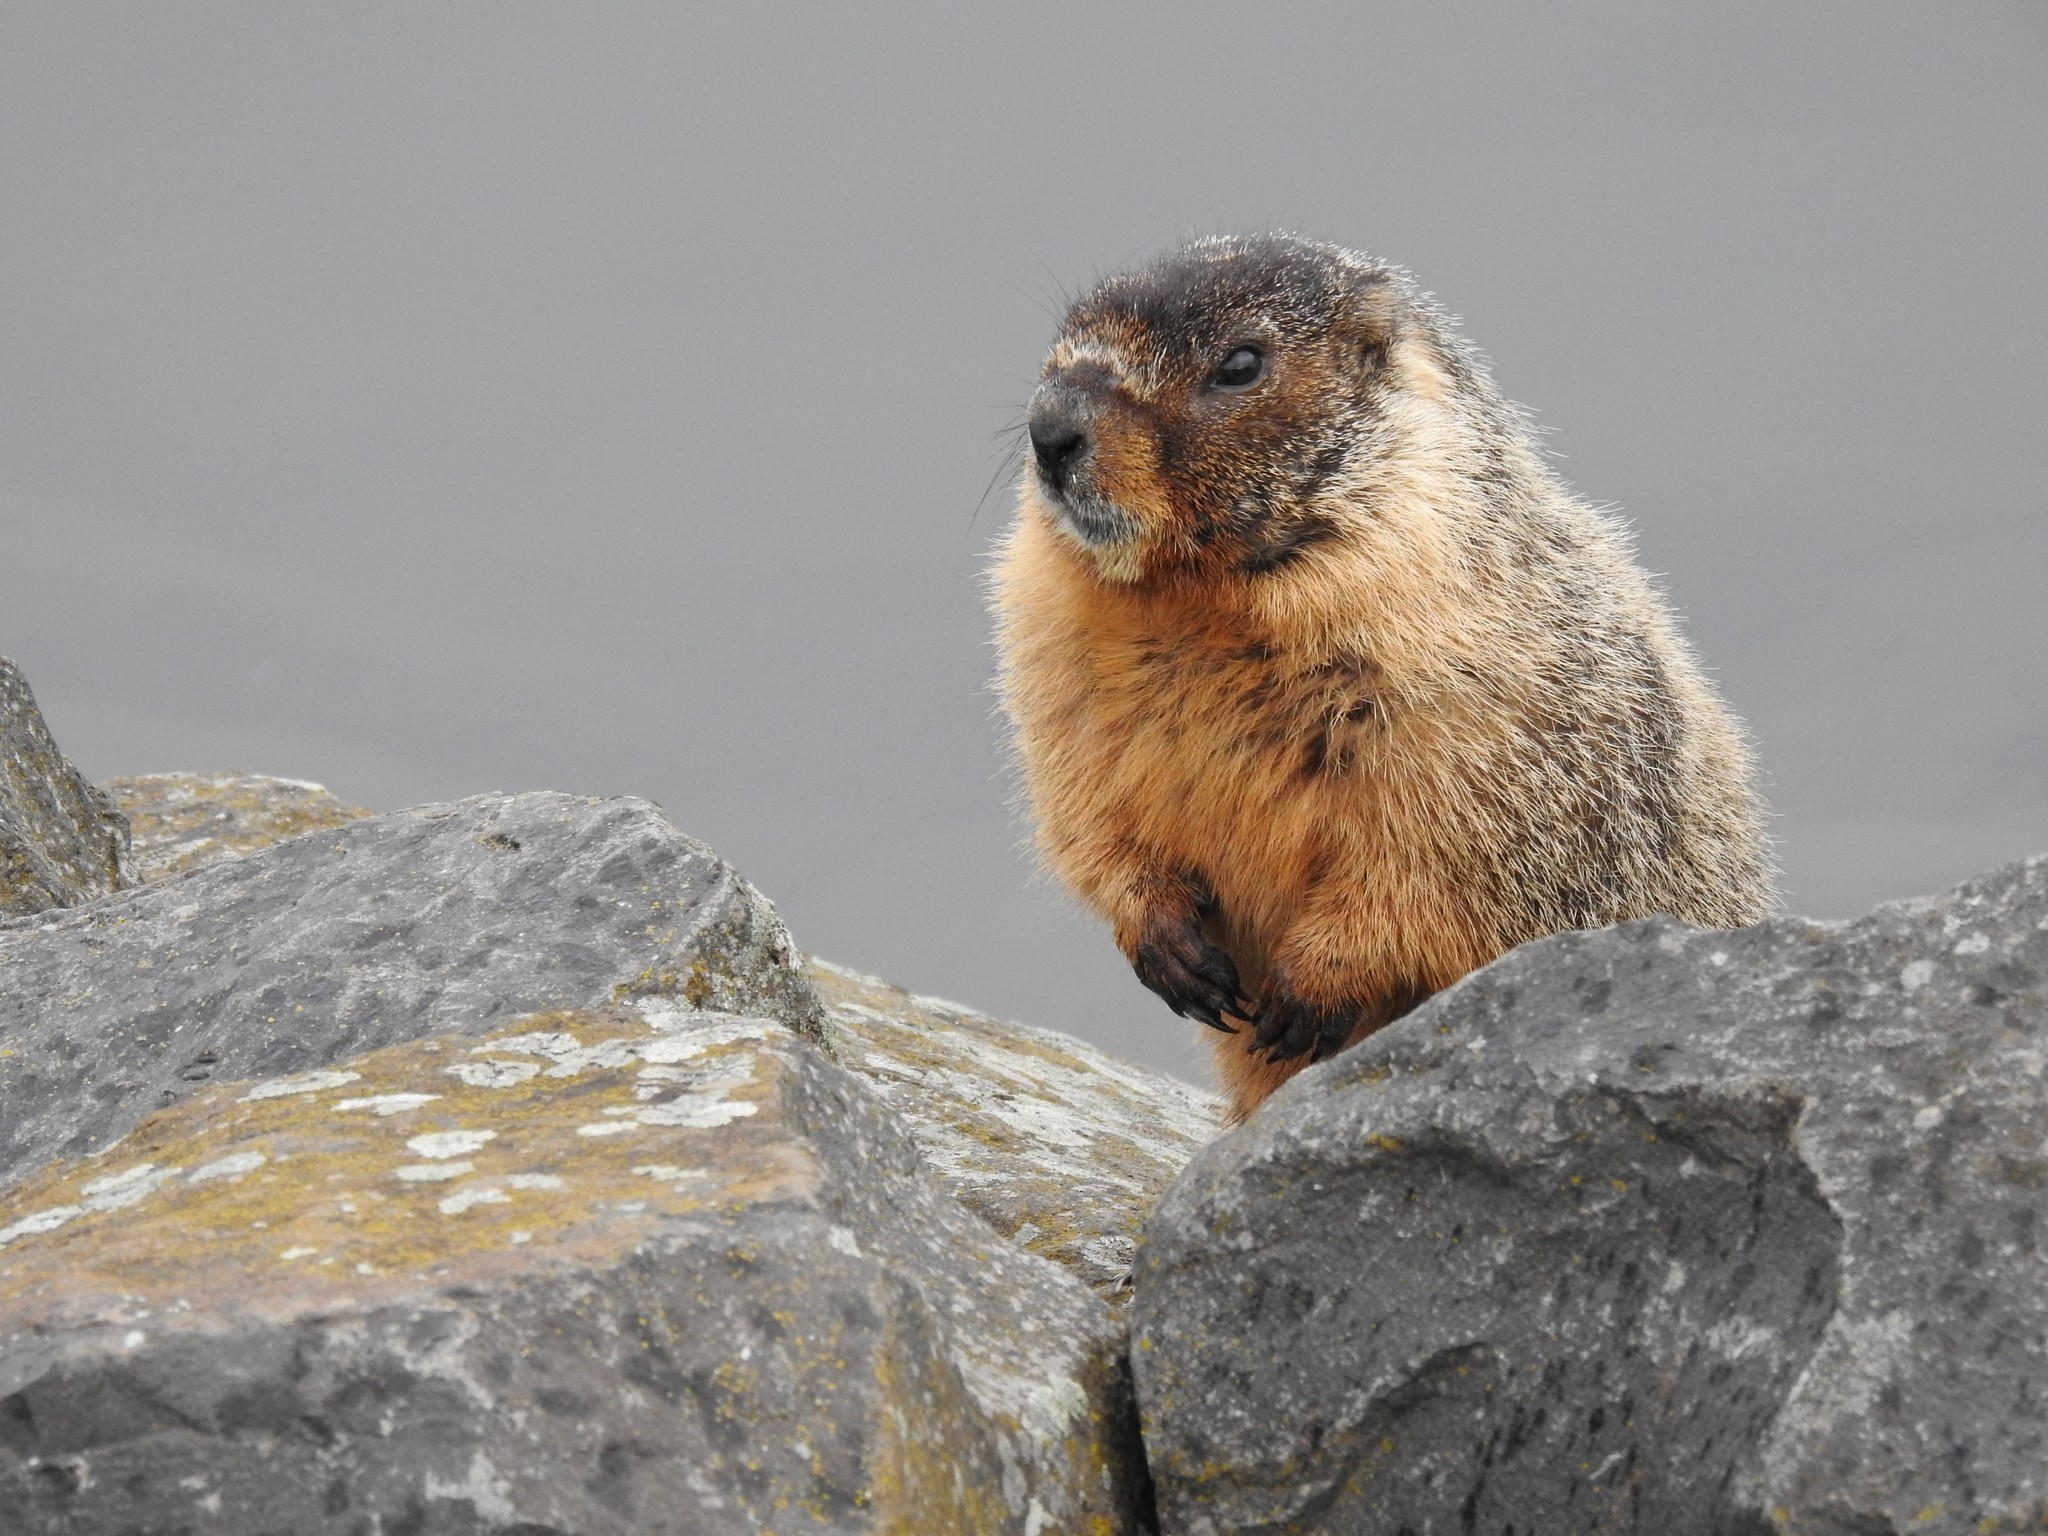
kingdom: Animalia
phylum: Chordata
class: Mammalia
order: Rodentia
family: Sciuridae
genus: Marmota
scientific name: Marmota flaviventris
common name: Yellow-bellied marmot
